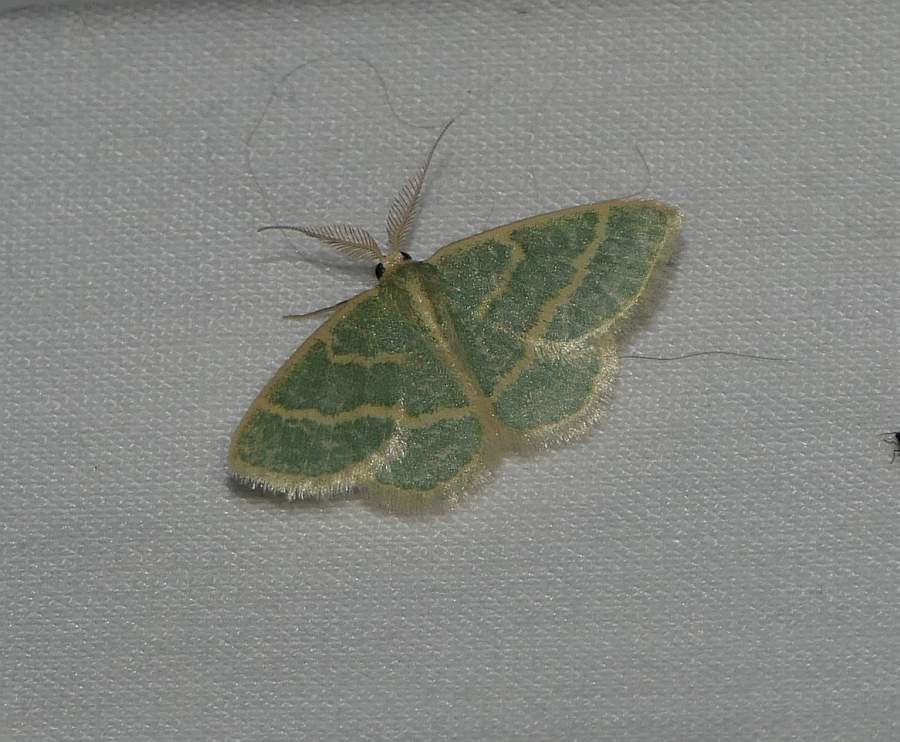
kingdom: Animalia
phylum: Arthropoda
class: Insecta
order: Lepidoptera
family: Geometridae
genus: Chlorochlamys
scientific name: Chlorochlamys chloroleucaria
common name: Blackberry looper
